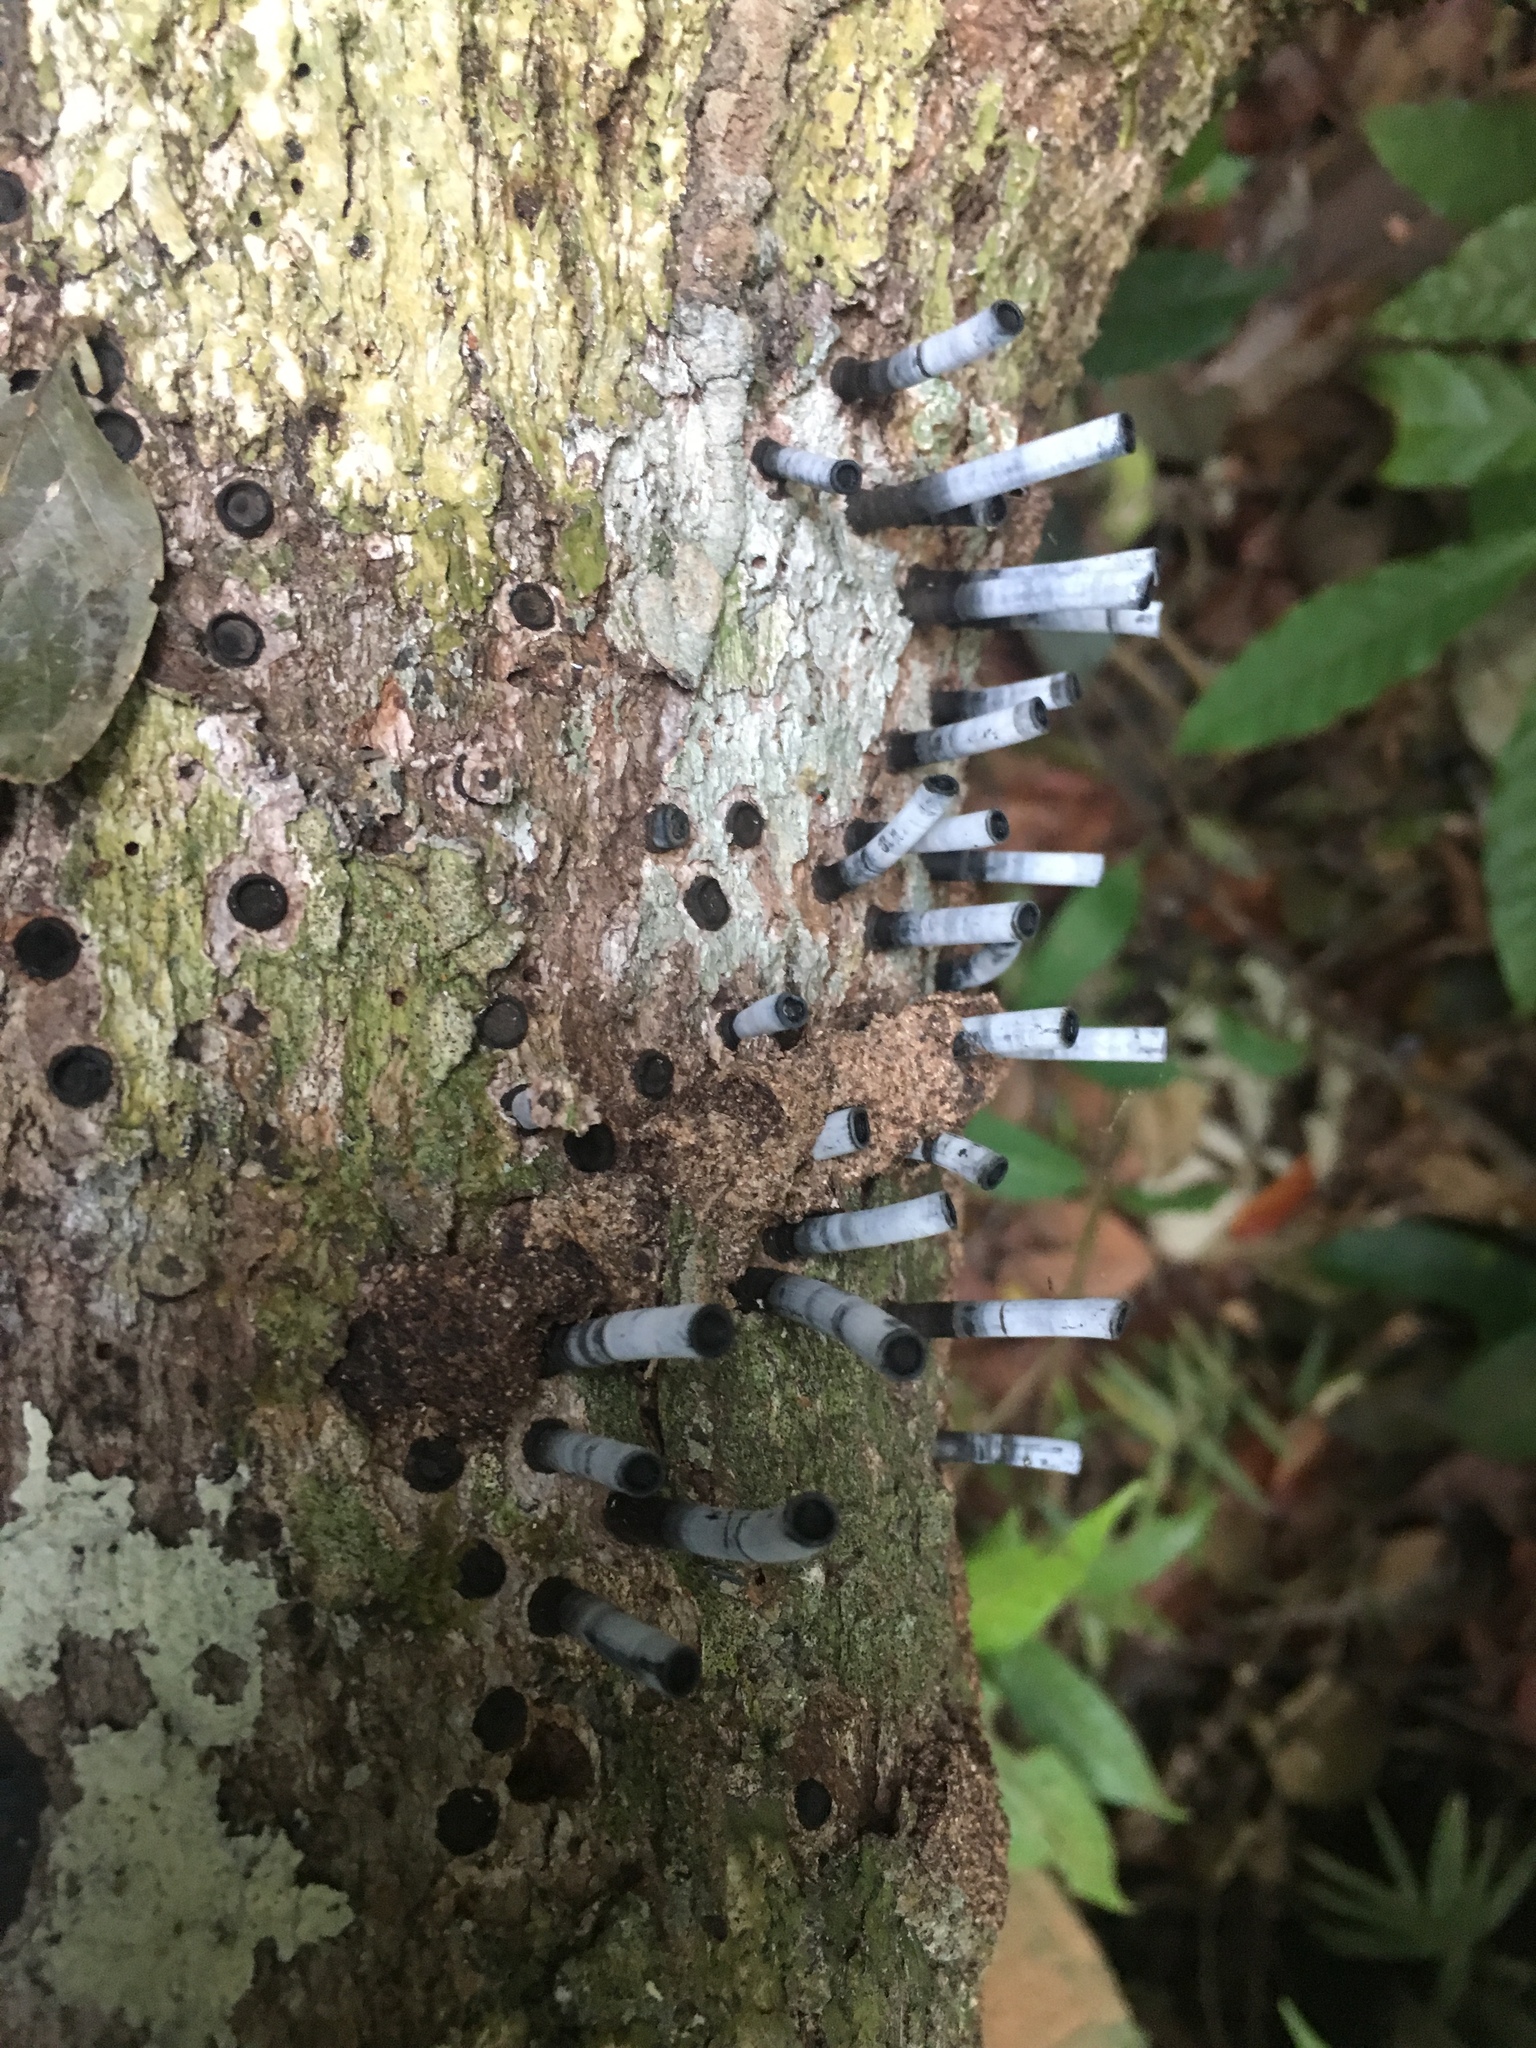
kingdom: Fungi
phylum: Ascomycota
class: Sordariomycetes
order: Xylariales
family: Graphostromataceae
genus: Camillea
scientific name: Camillea leprieurii
